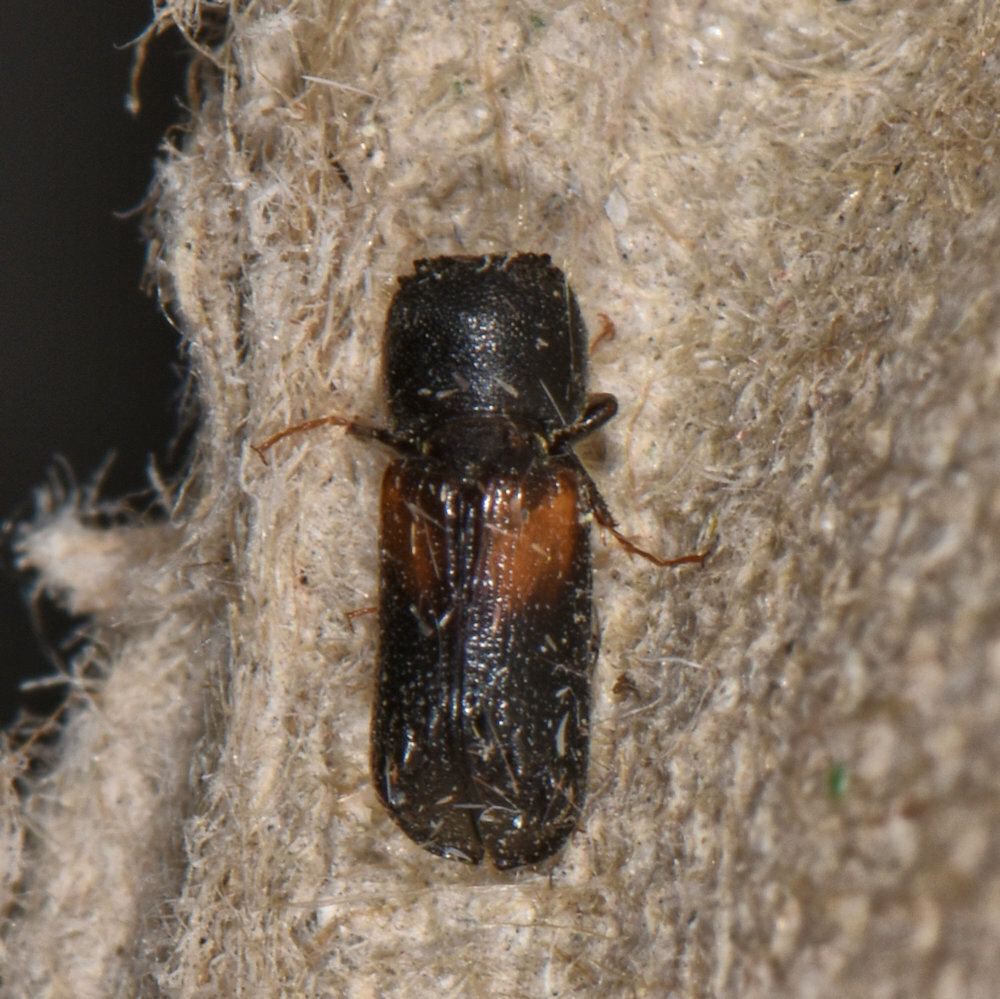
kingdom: Animalia
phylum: Arthropoda
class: Insecta
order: Coleoptera
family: Bostrichidae
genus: Xylobiops
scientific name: Xylobiops basilaris
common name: Red-shouldered bostrichid
